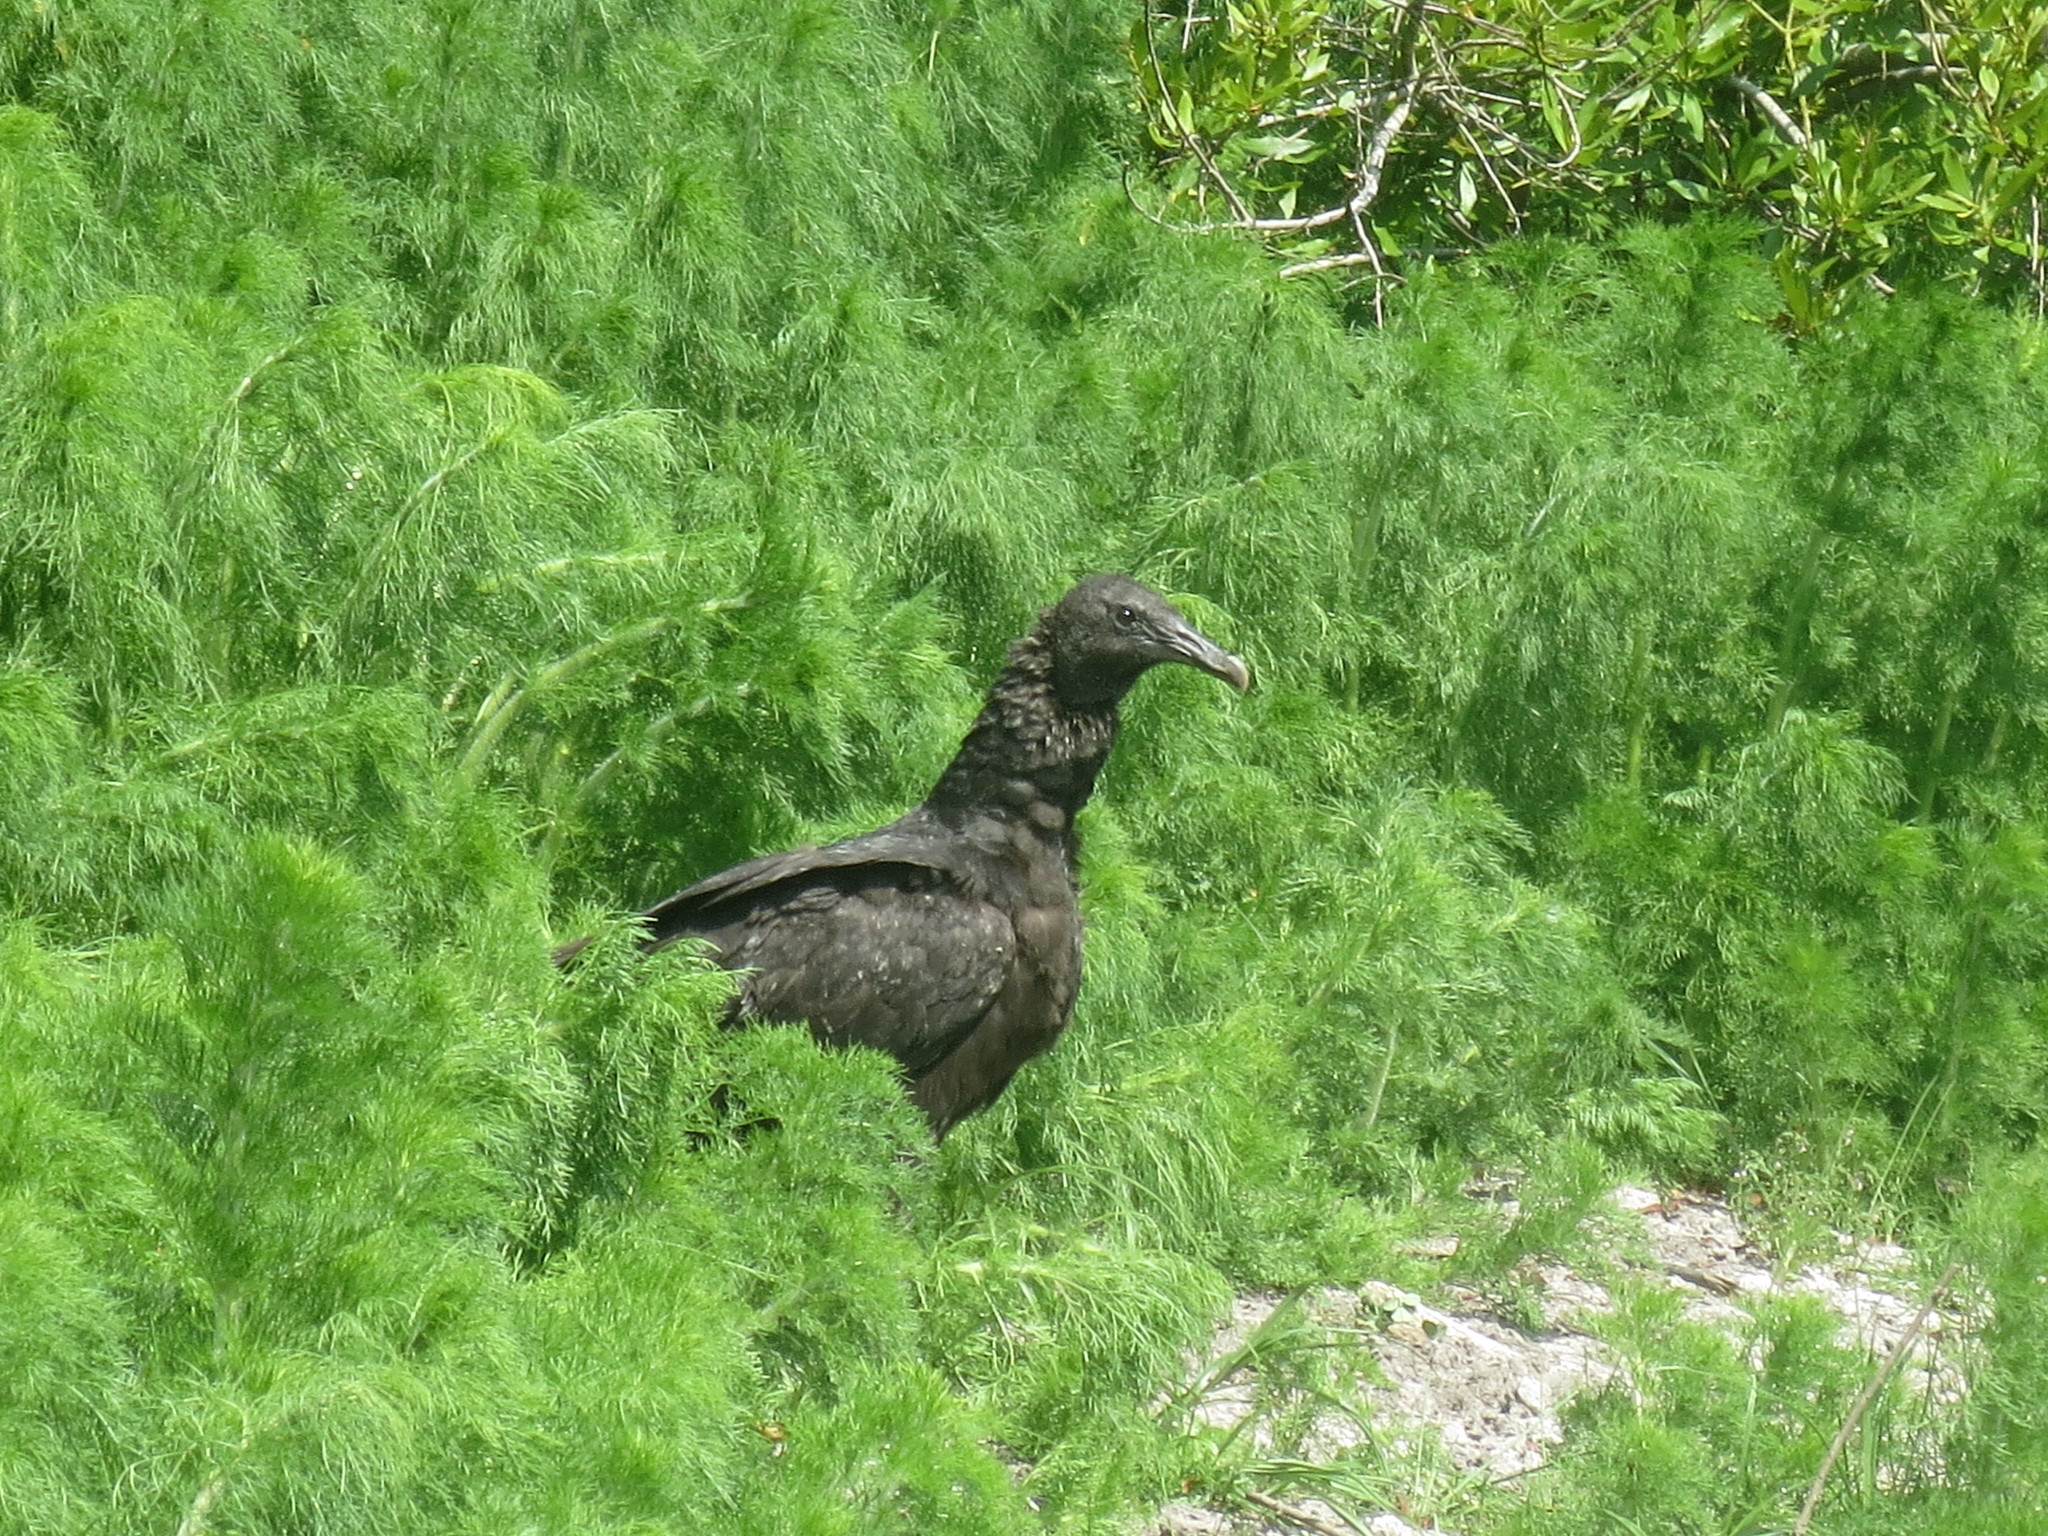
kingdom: Animalia
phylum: Chordata
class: Aves
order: Accipitriformes
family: Cathartidae
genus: Coragyps
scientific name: Coragyps atratus
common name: Black vulture
